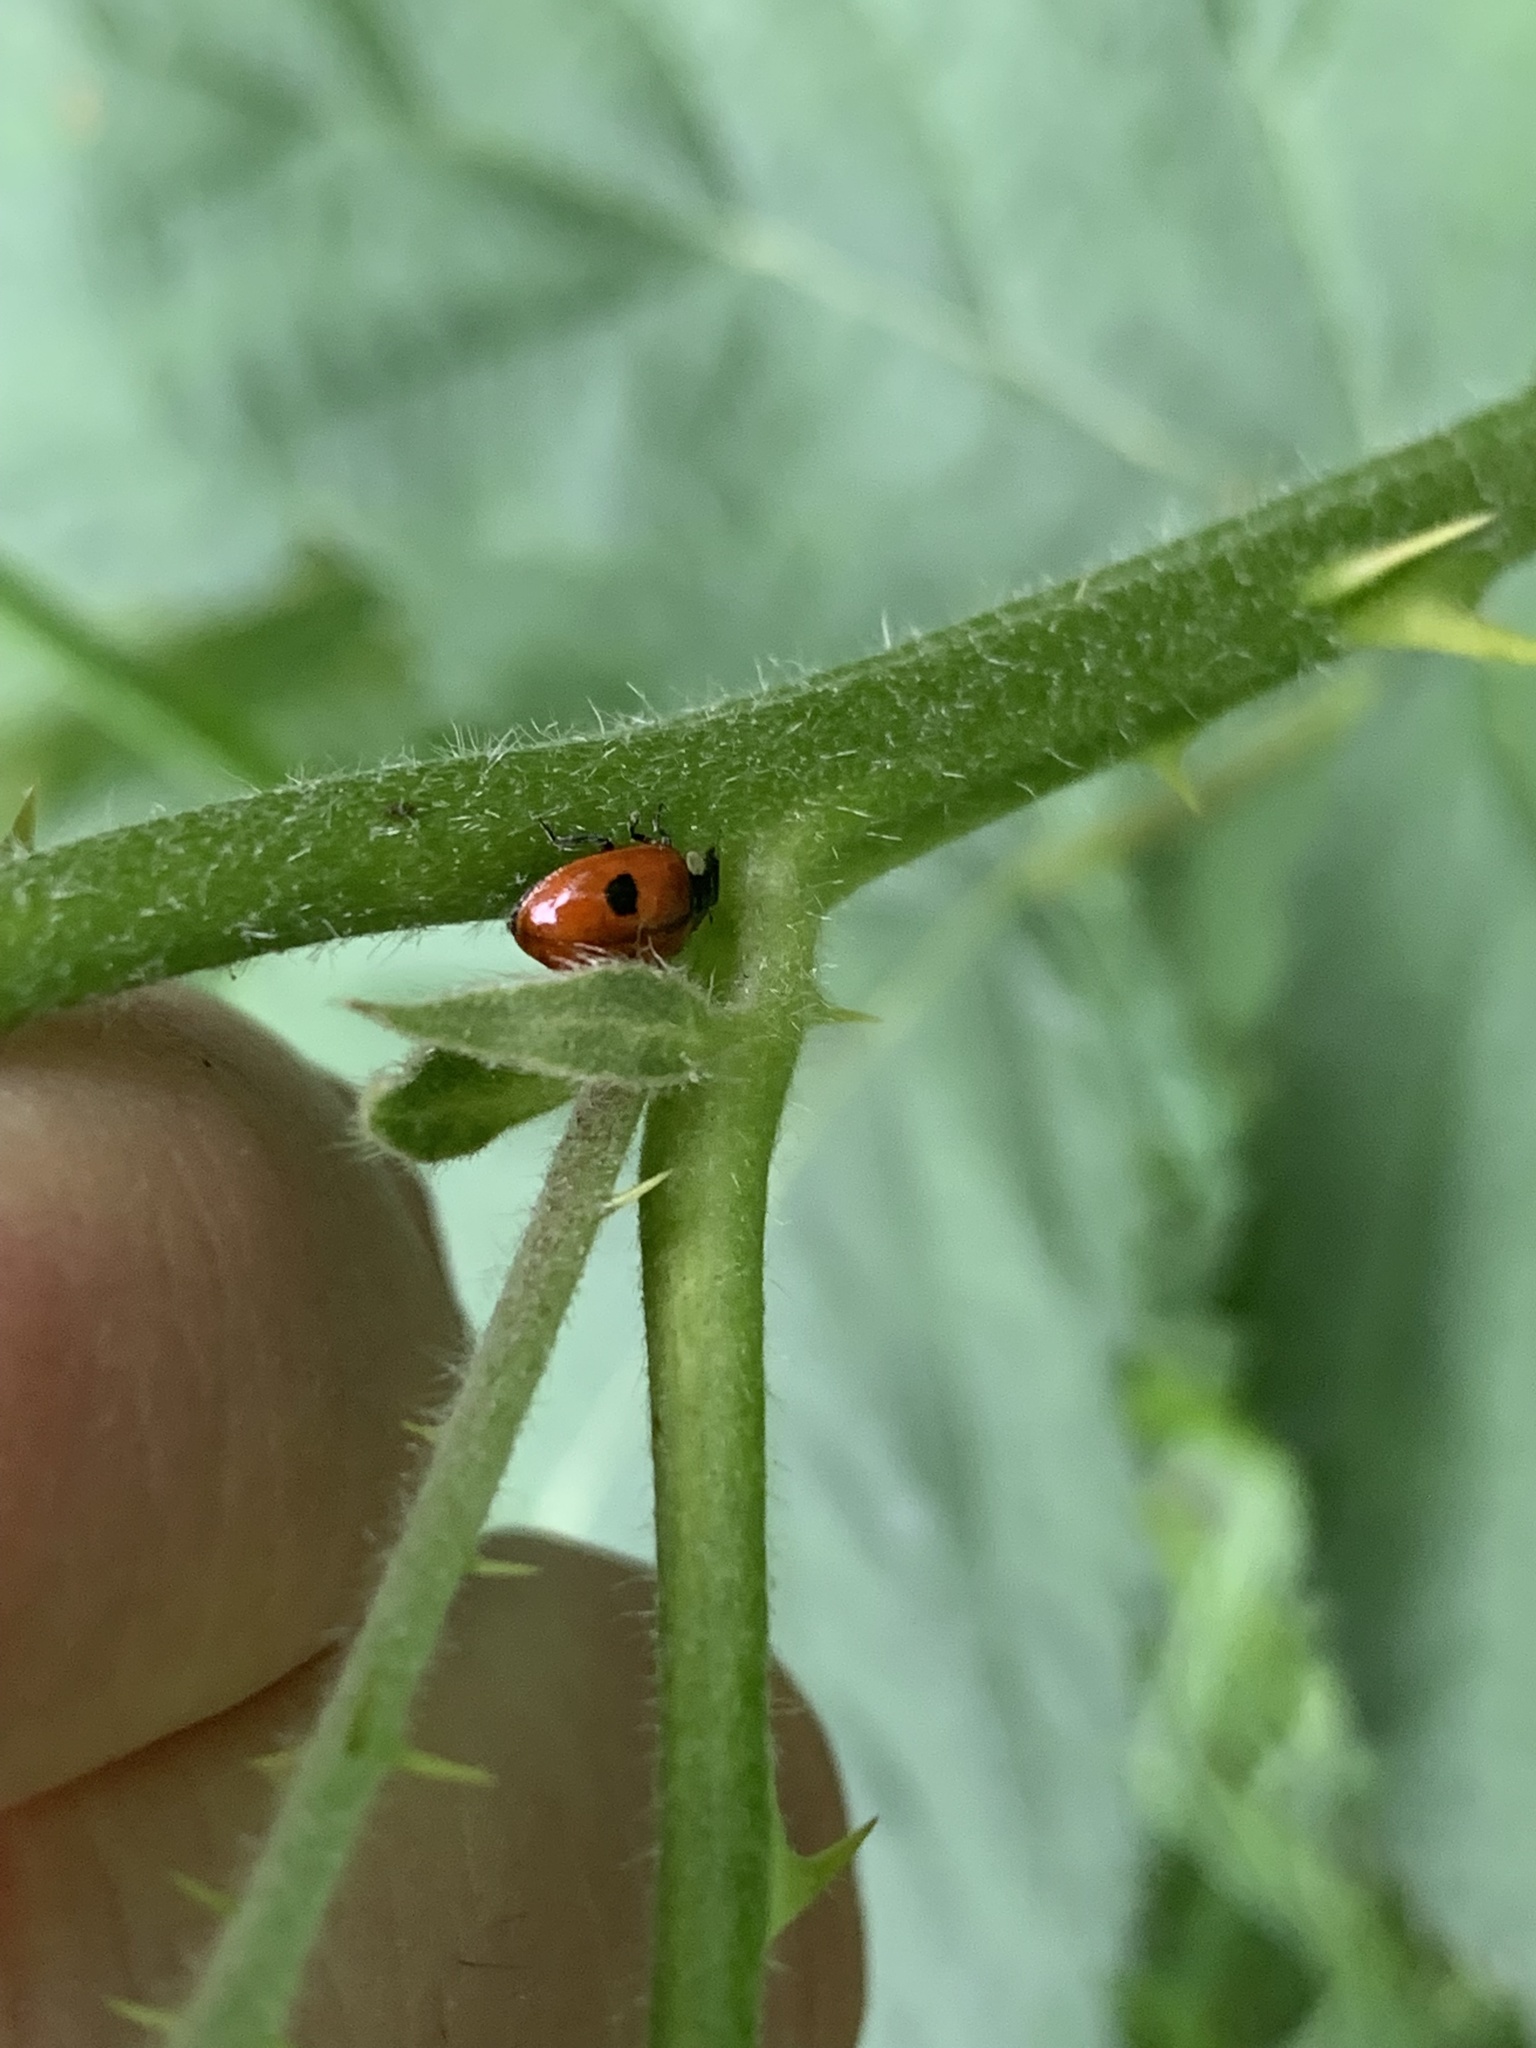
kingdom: Animalia
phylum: Arthropoda
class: Insecta
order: Coleoptera
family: Coccinellidae
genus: Adalia
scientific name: Adalia bipunctata
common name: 2-spot ladybird
